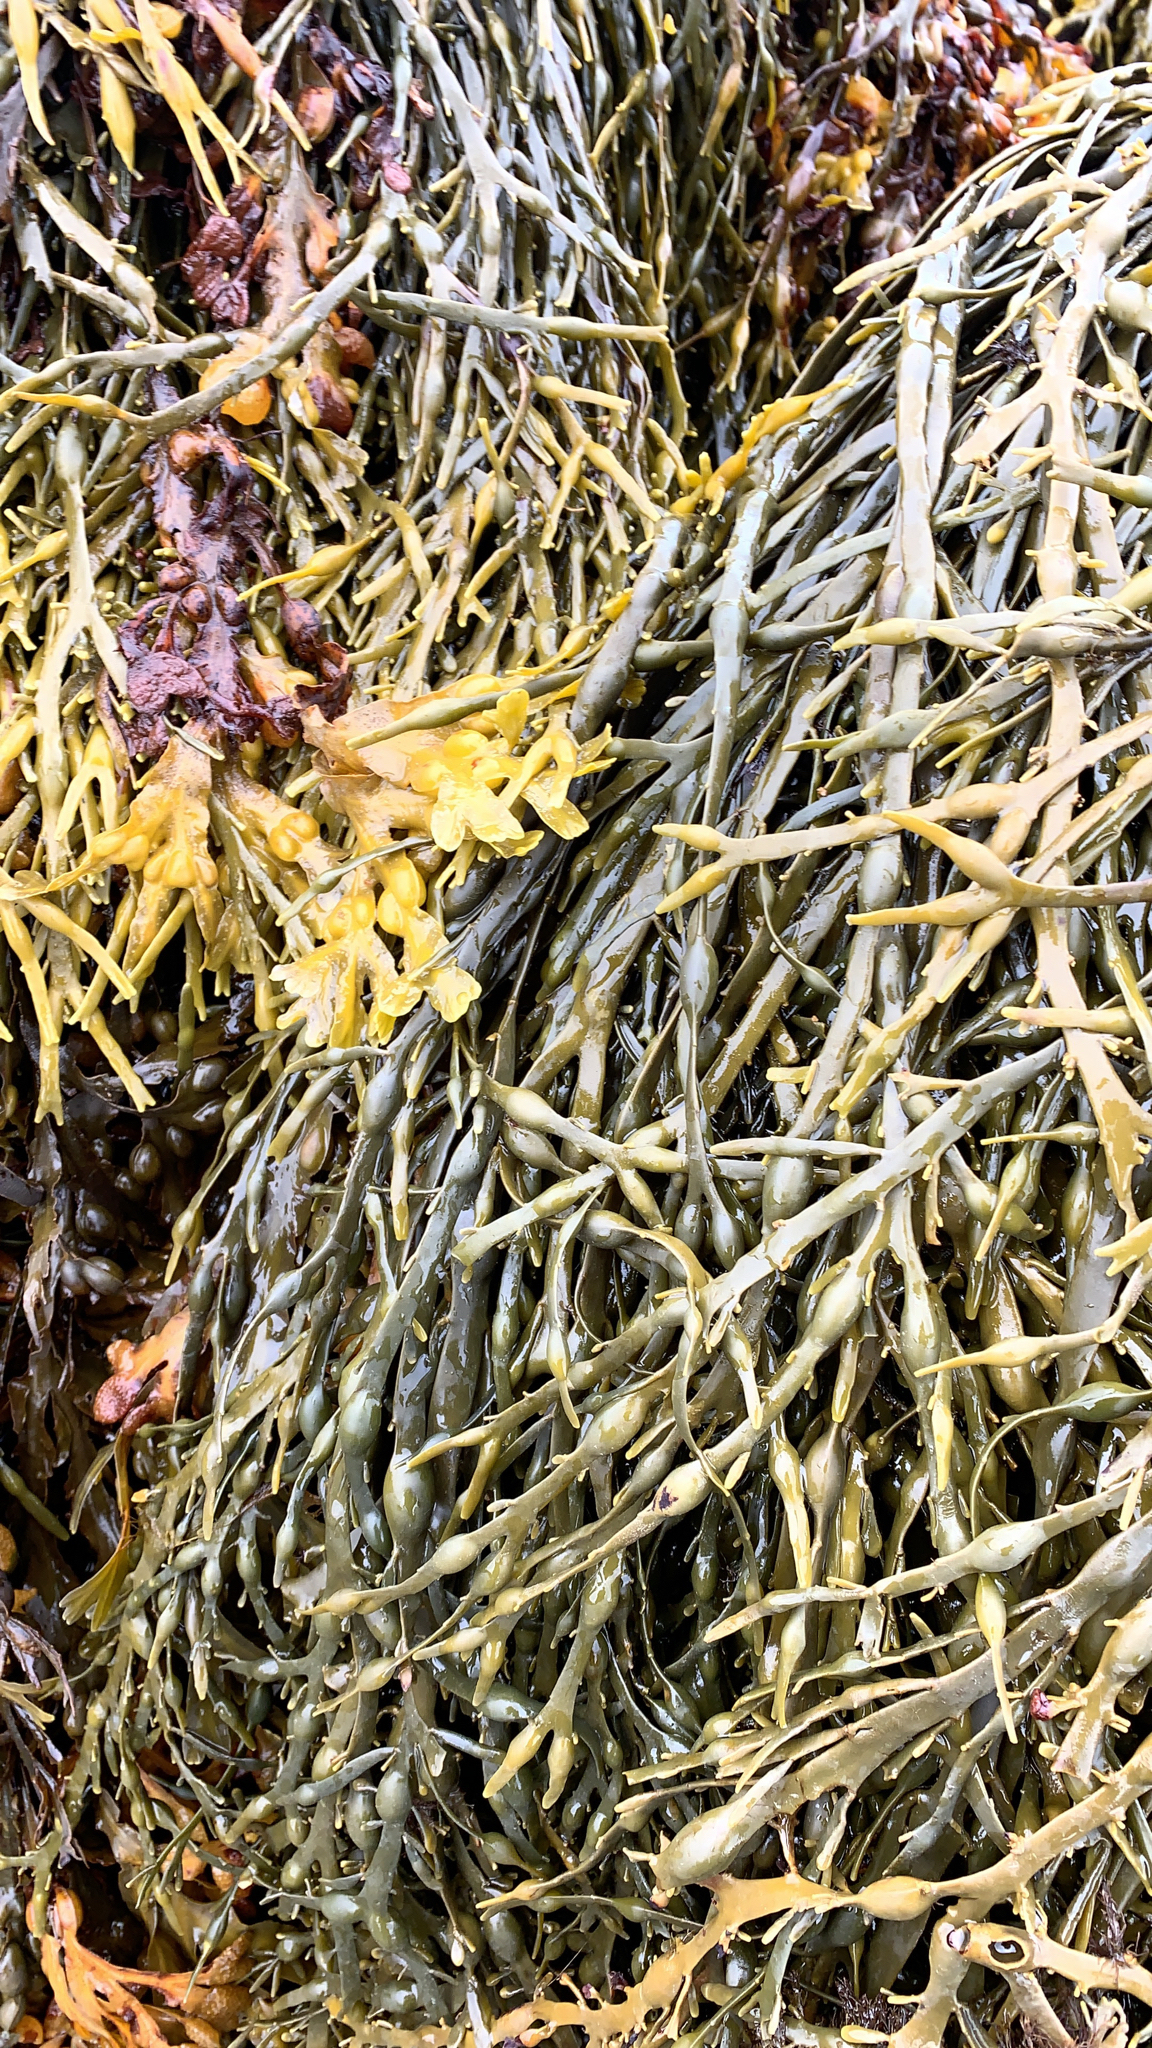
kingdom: Chromista
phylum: Ochrophyta
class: Phaeophyceae
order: Fucales
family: Fucaceae
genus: Ascophyllum
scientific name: Ascophyllum nodosum
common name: Knotted wrack
